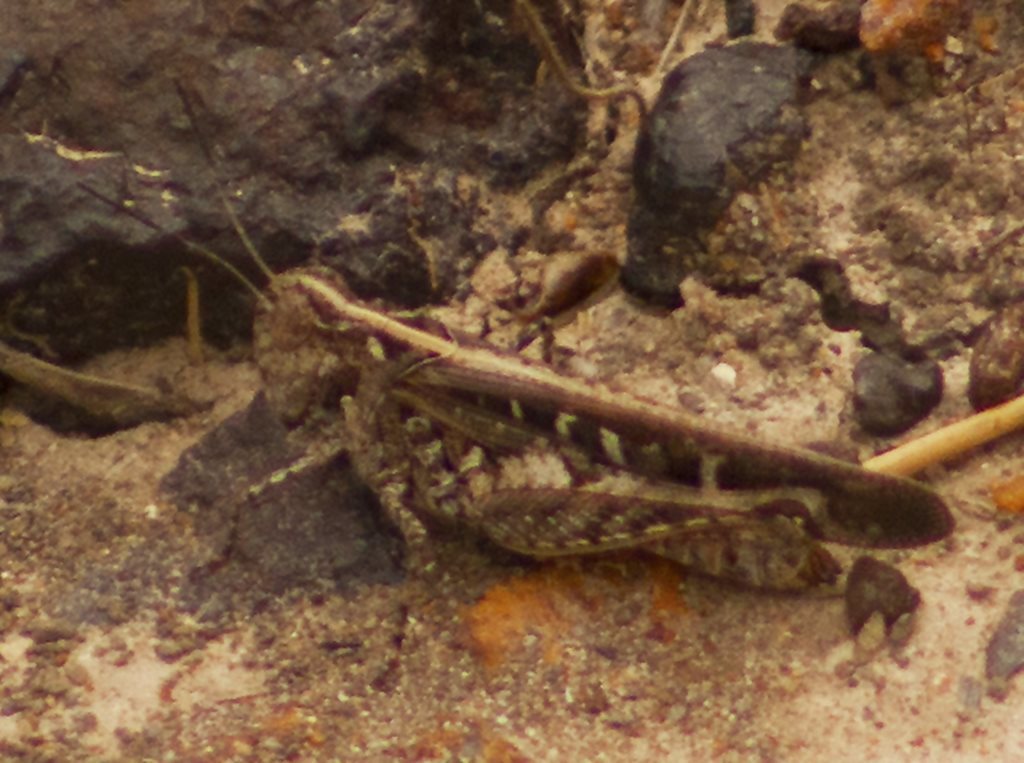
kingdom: Animalia
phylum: Arthropoda
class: Insecta
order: Orthoptera
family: Acrididae
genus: Heteropternis
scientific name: Heteropternis obscurella
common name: Long-legged bandwing
